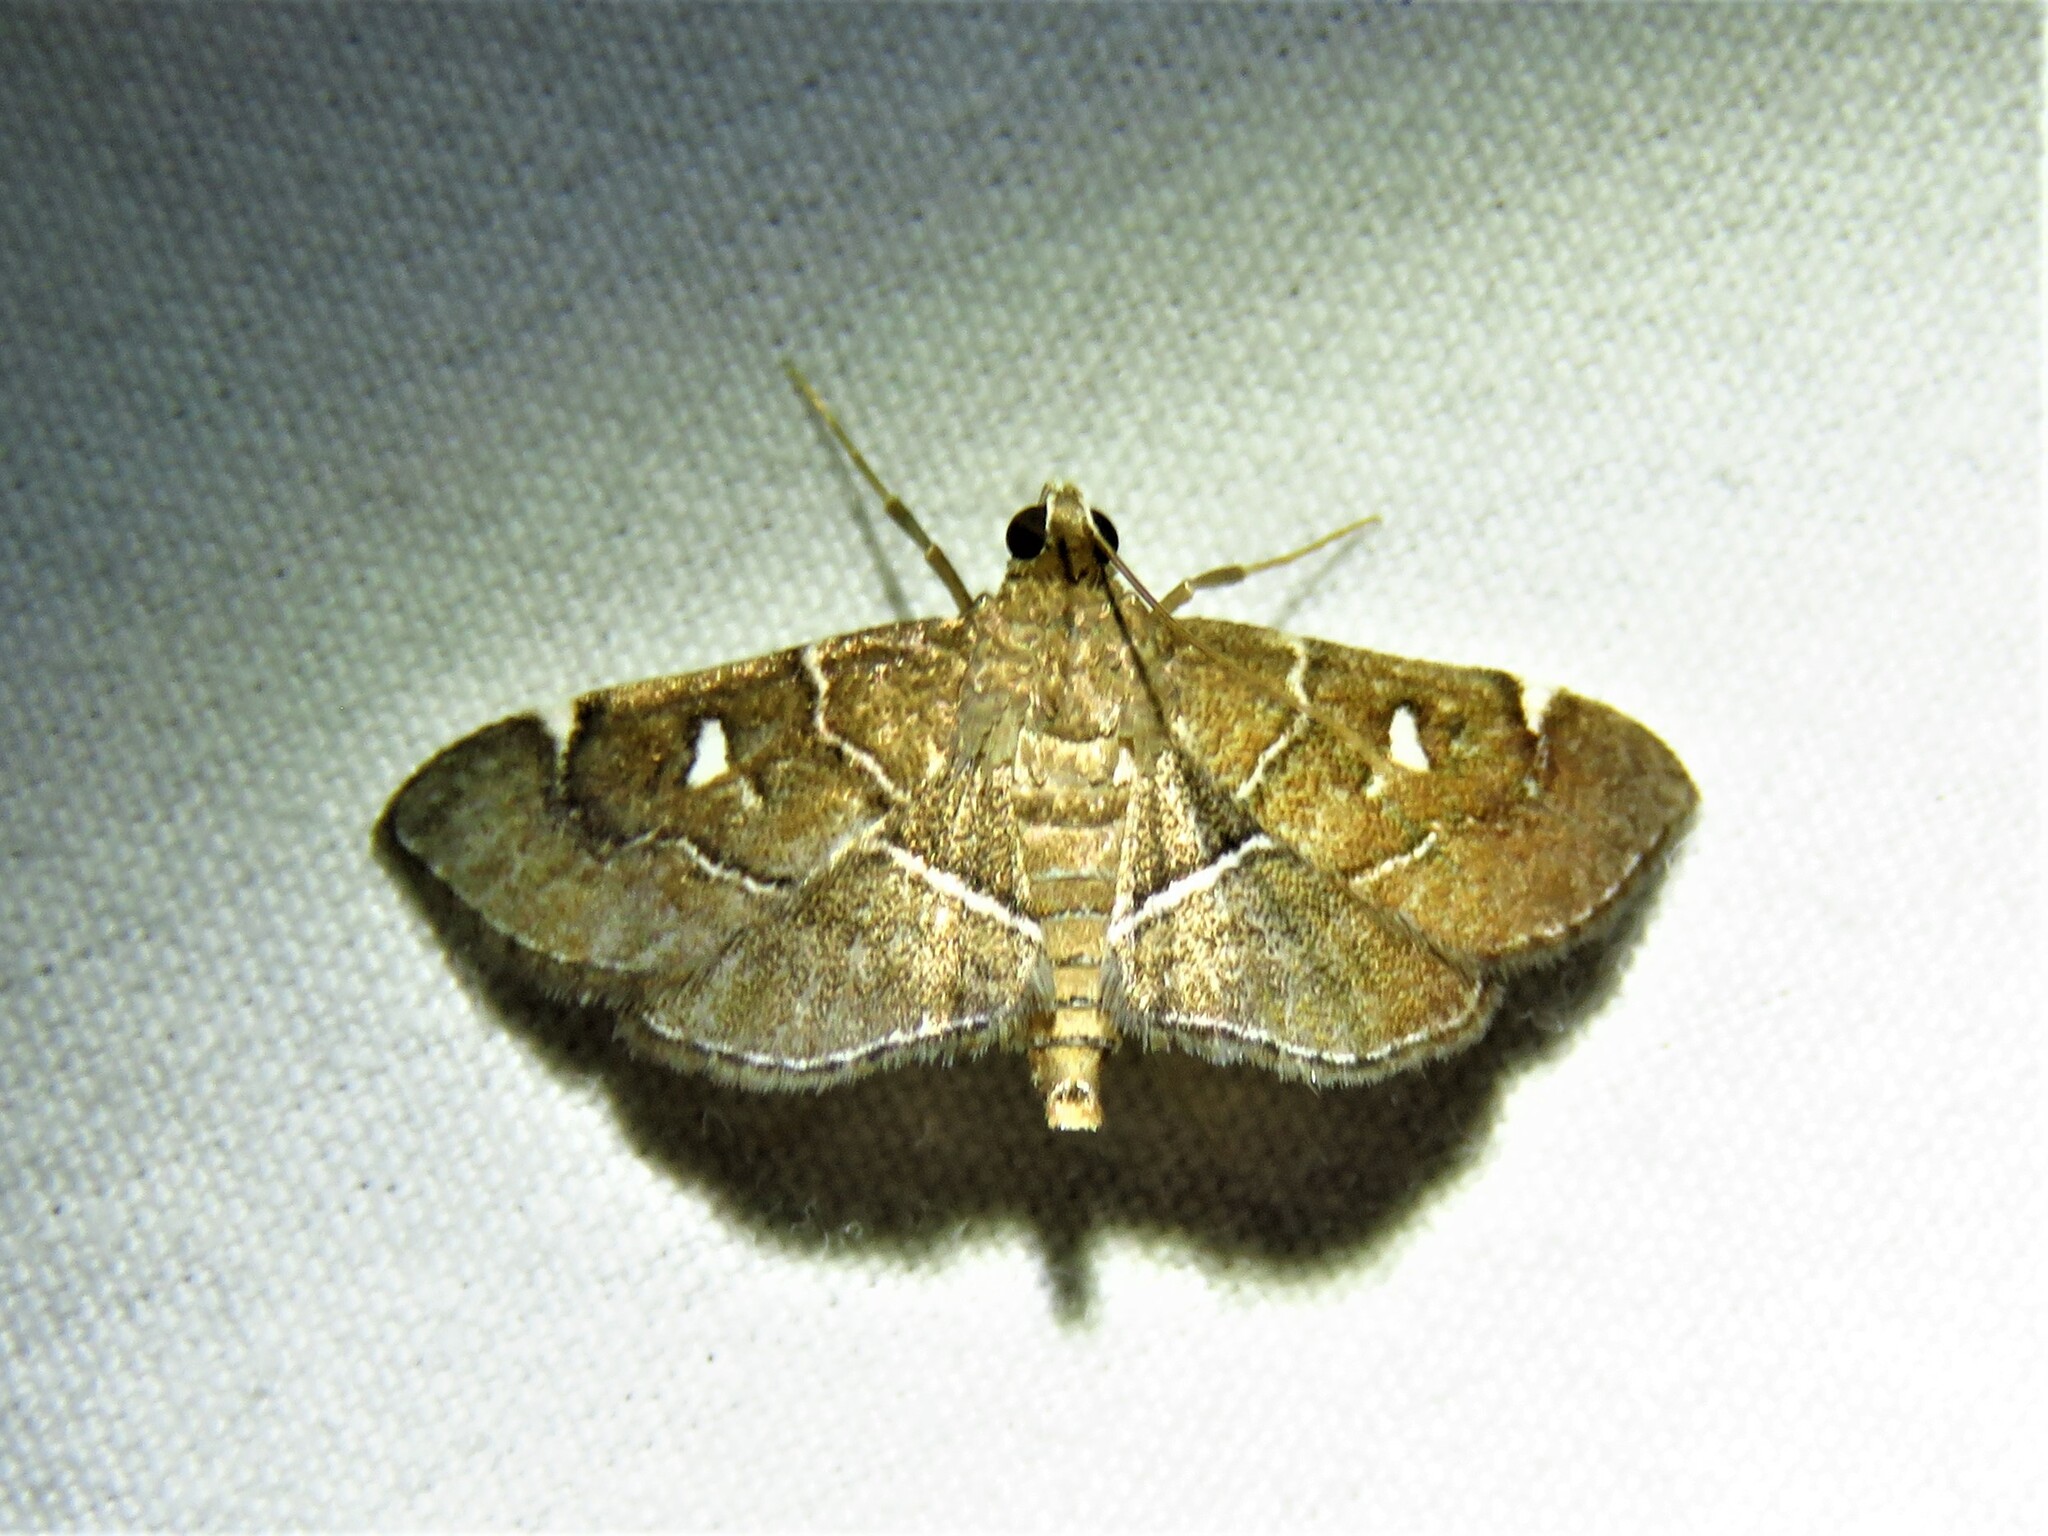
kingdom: Animalia
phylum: Arthropoda
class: Insecta
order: Lepidoptera
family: Crambidae
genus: Lamprosema
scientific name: Lamprosema victoriae
